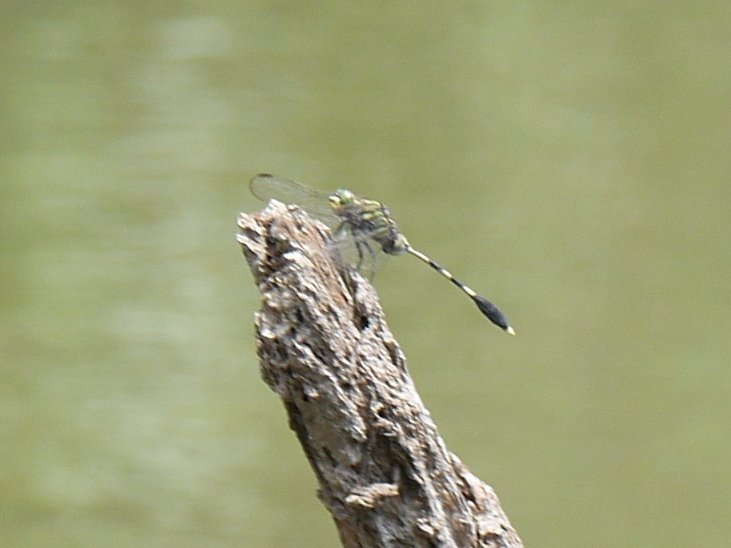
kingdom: Animalia
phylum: Arthropoda
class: Insecta
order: Odonata
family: Libellulidae
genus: Orthetrum
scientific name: Orthetrum sabina
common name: Slender skimmer
